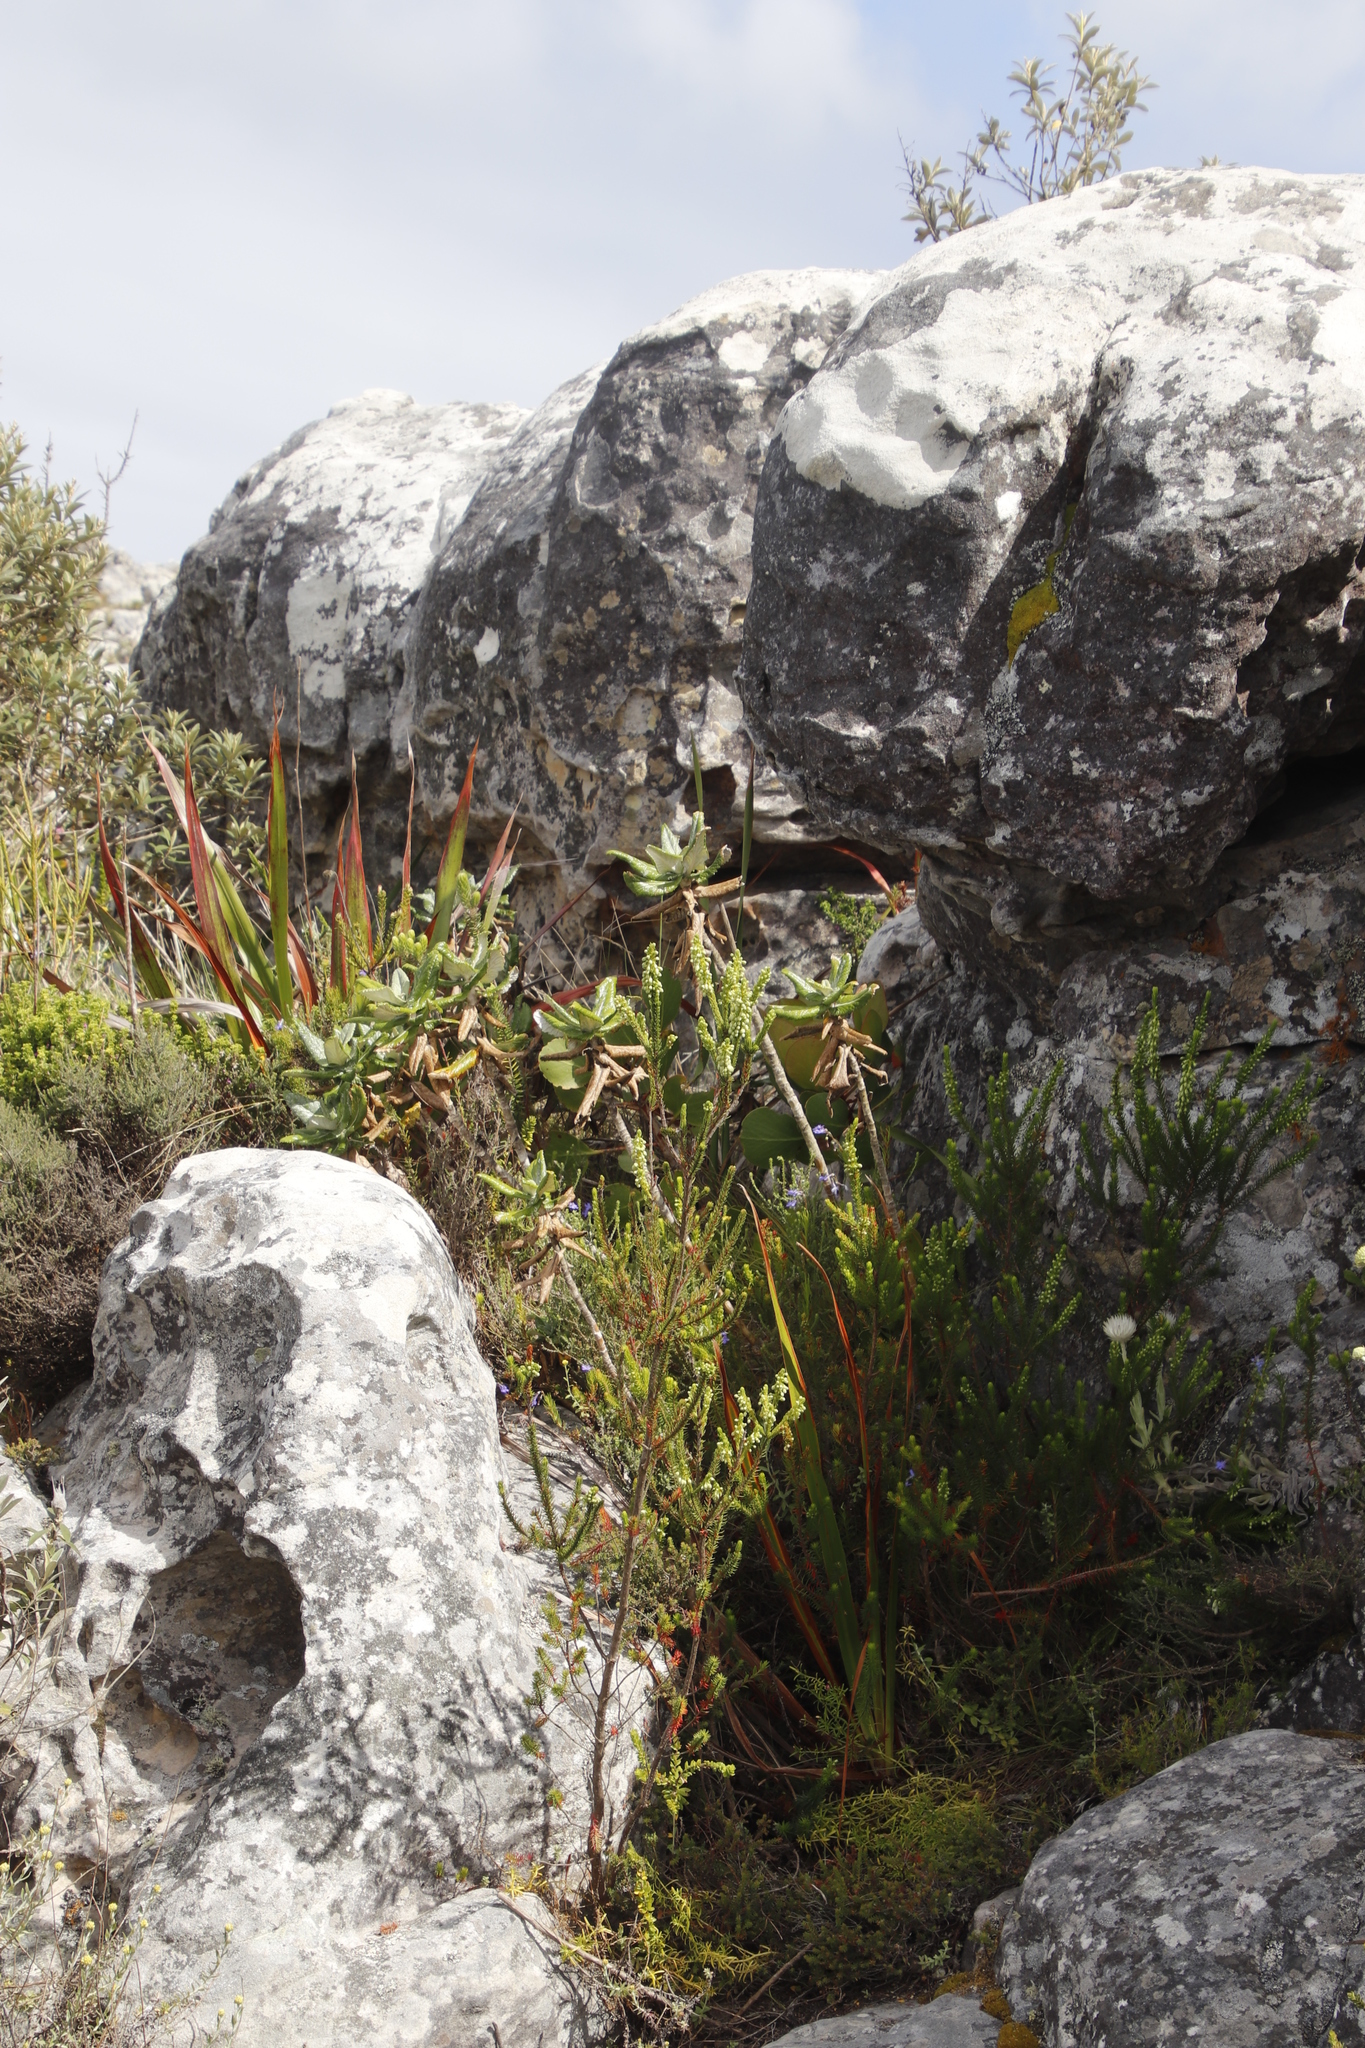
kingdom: Plantae
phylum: Tracheophyta
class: Magnoliopsida
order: Ericales
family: Ericaceae
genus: Erica
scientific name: Erica mammosa
